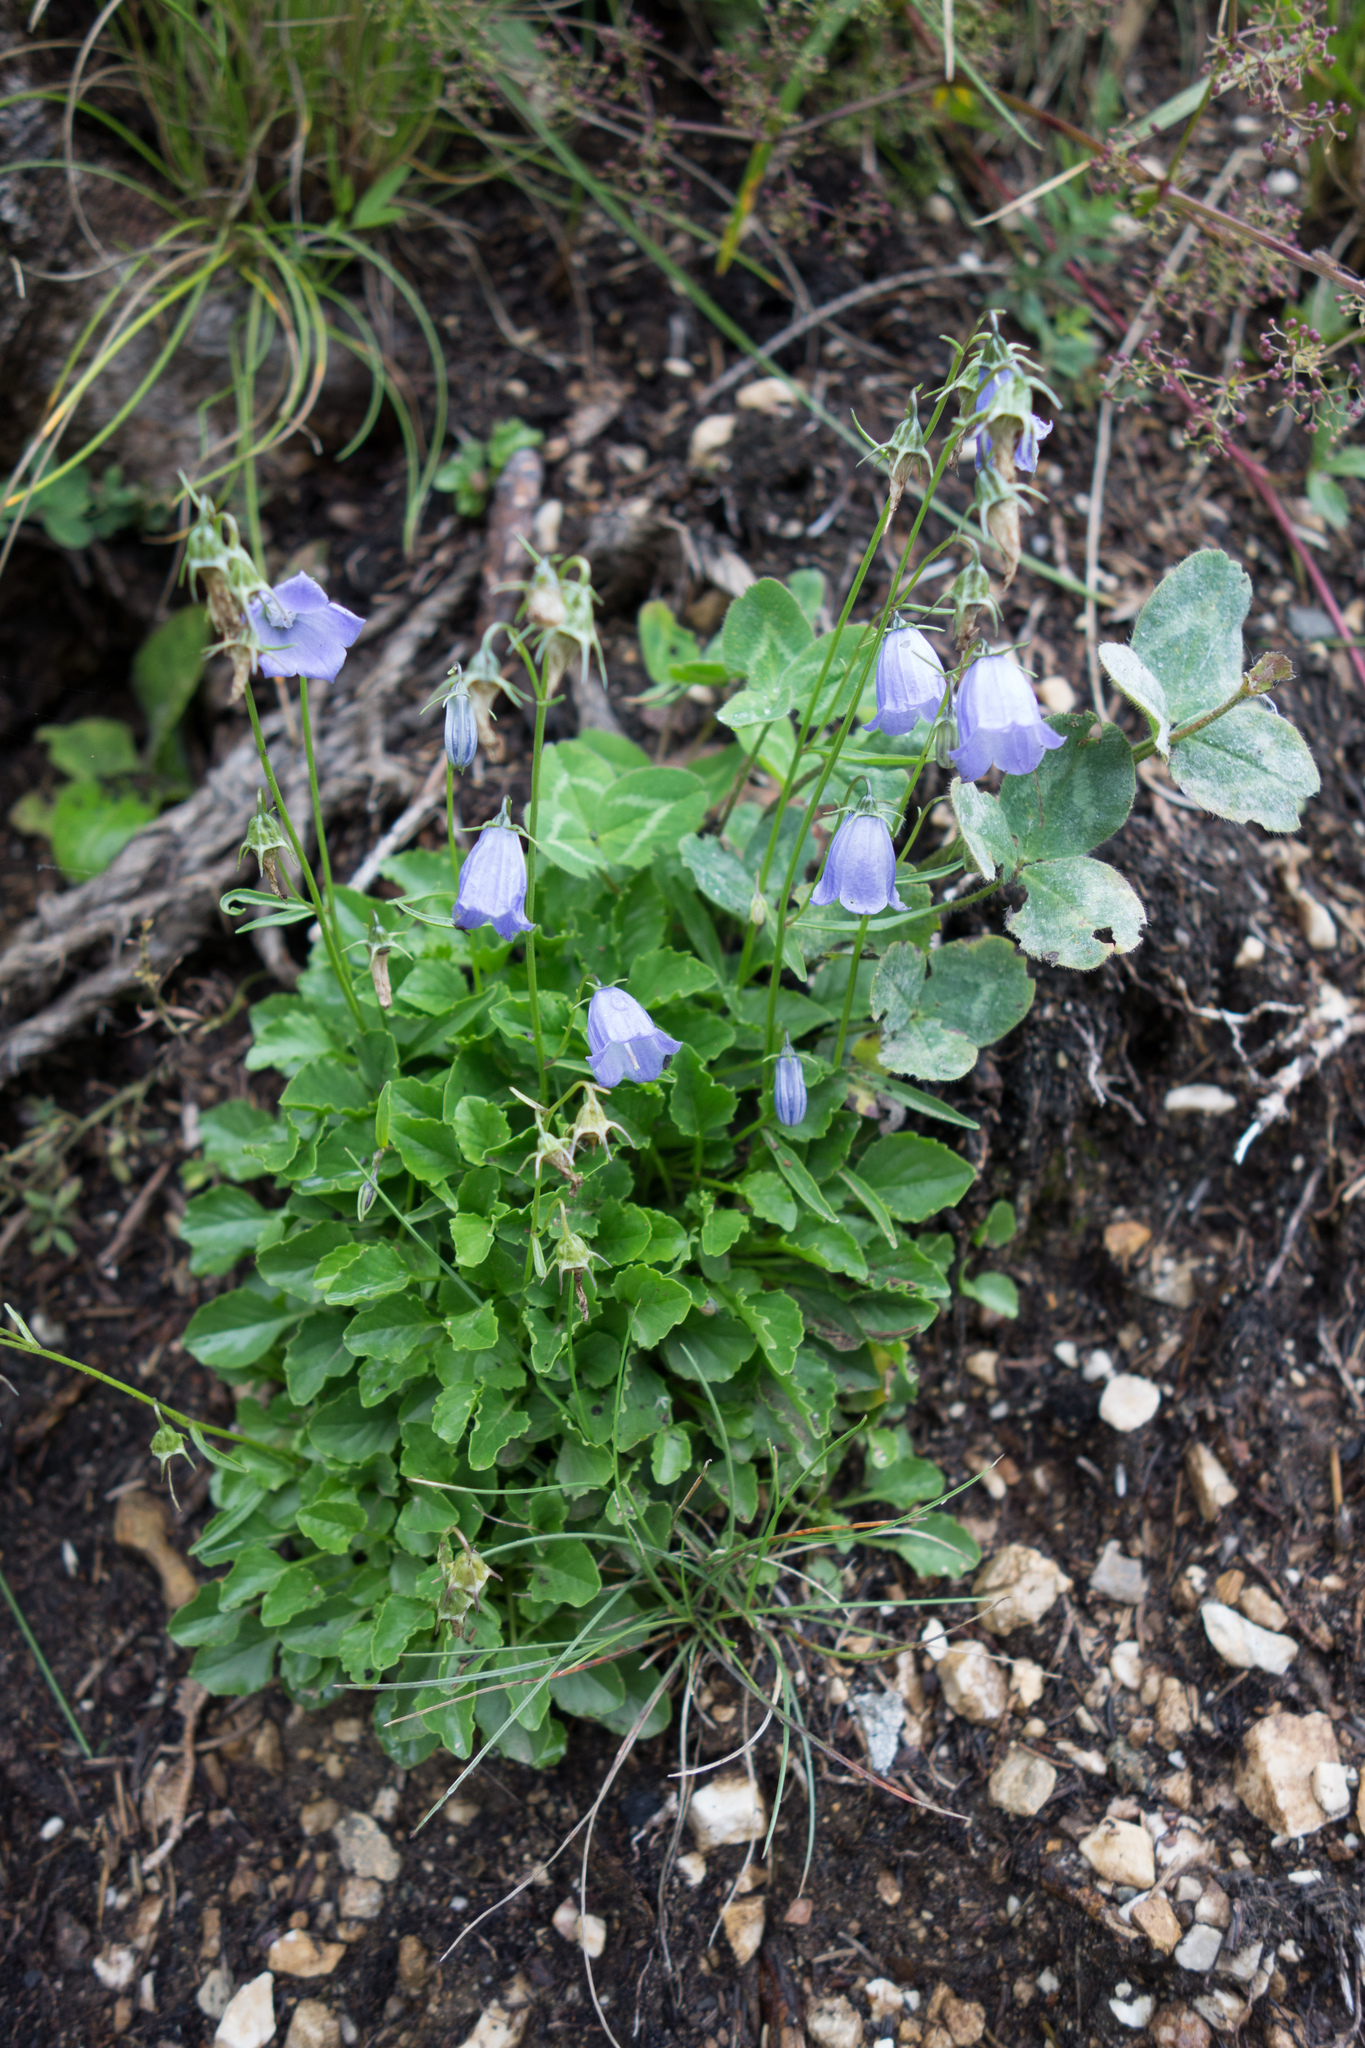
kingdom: Plantae
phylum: Tracheophyta
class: Magnoliopsida
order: Asterales
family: Campanulaceae
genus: Campanula
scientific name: Campanula cochleariifolia
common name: Fairies'-thimbles
